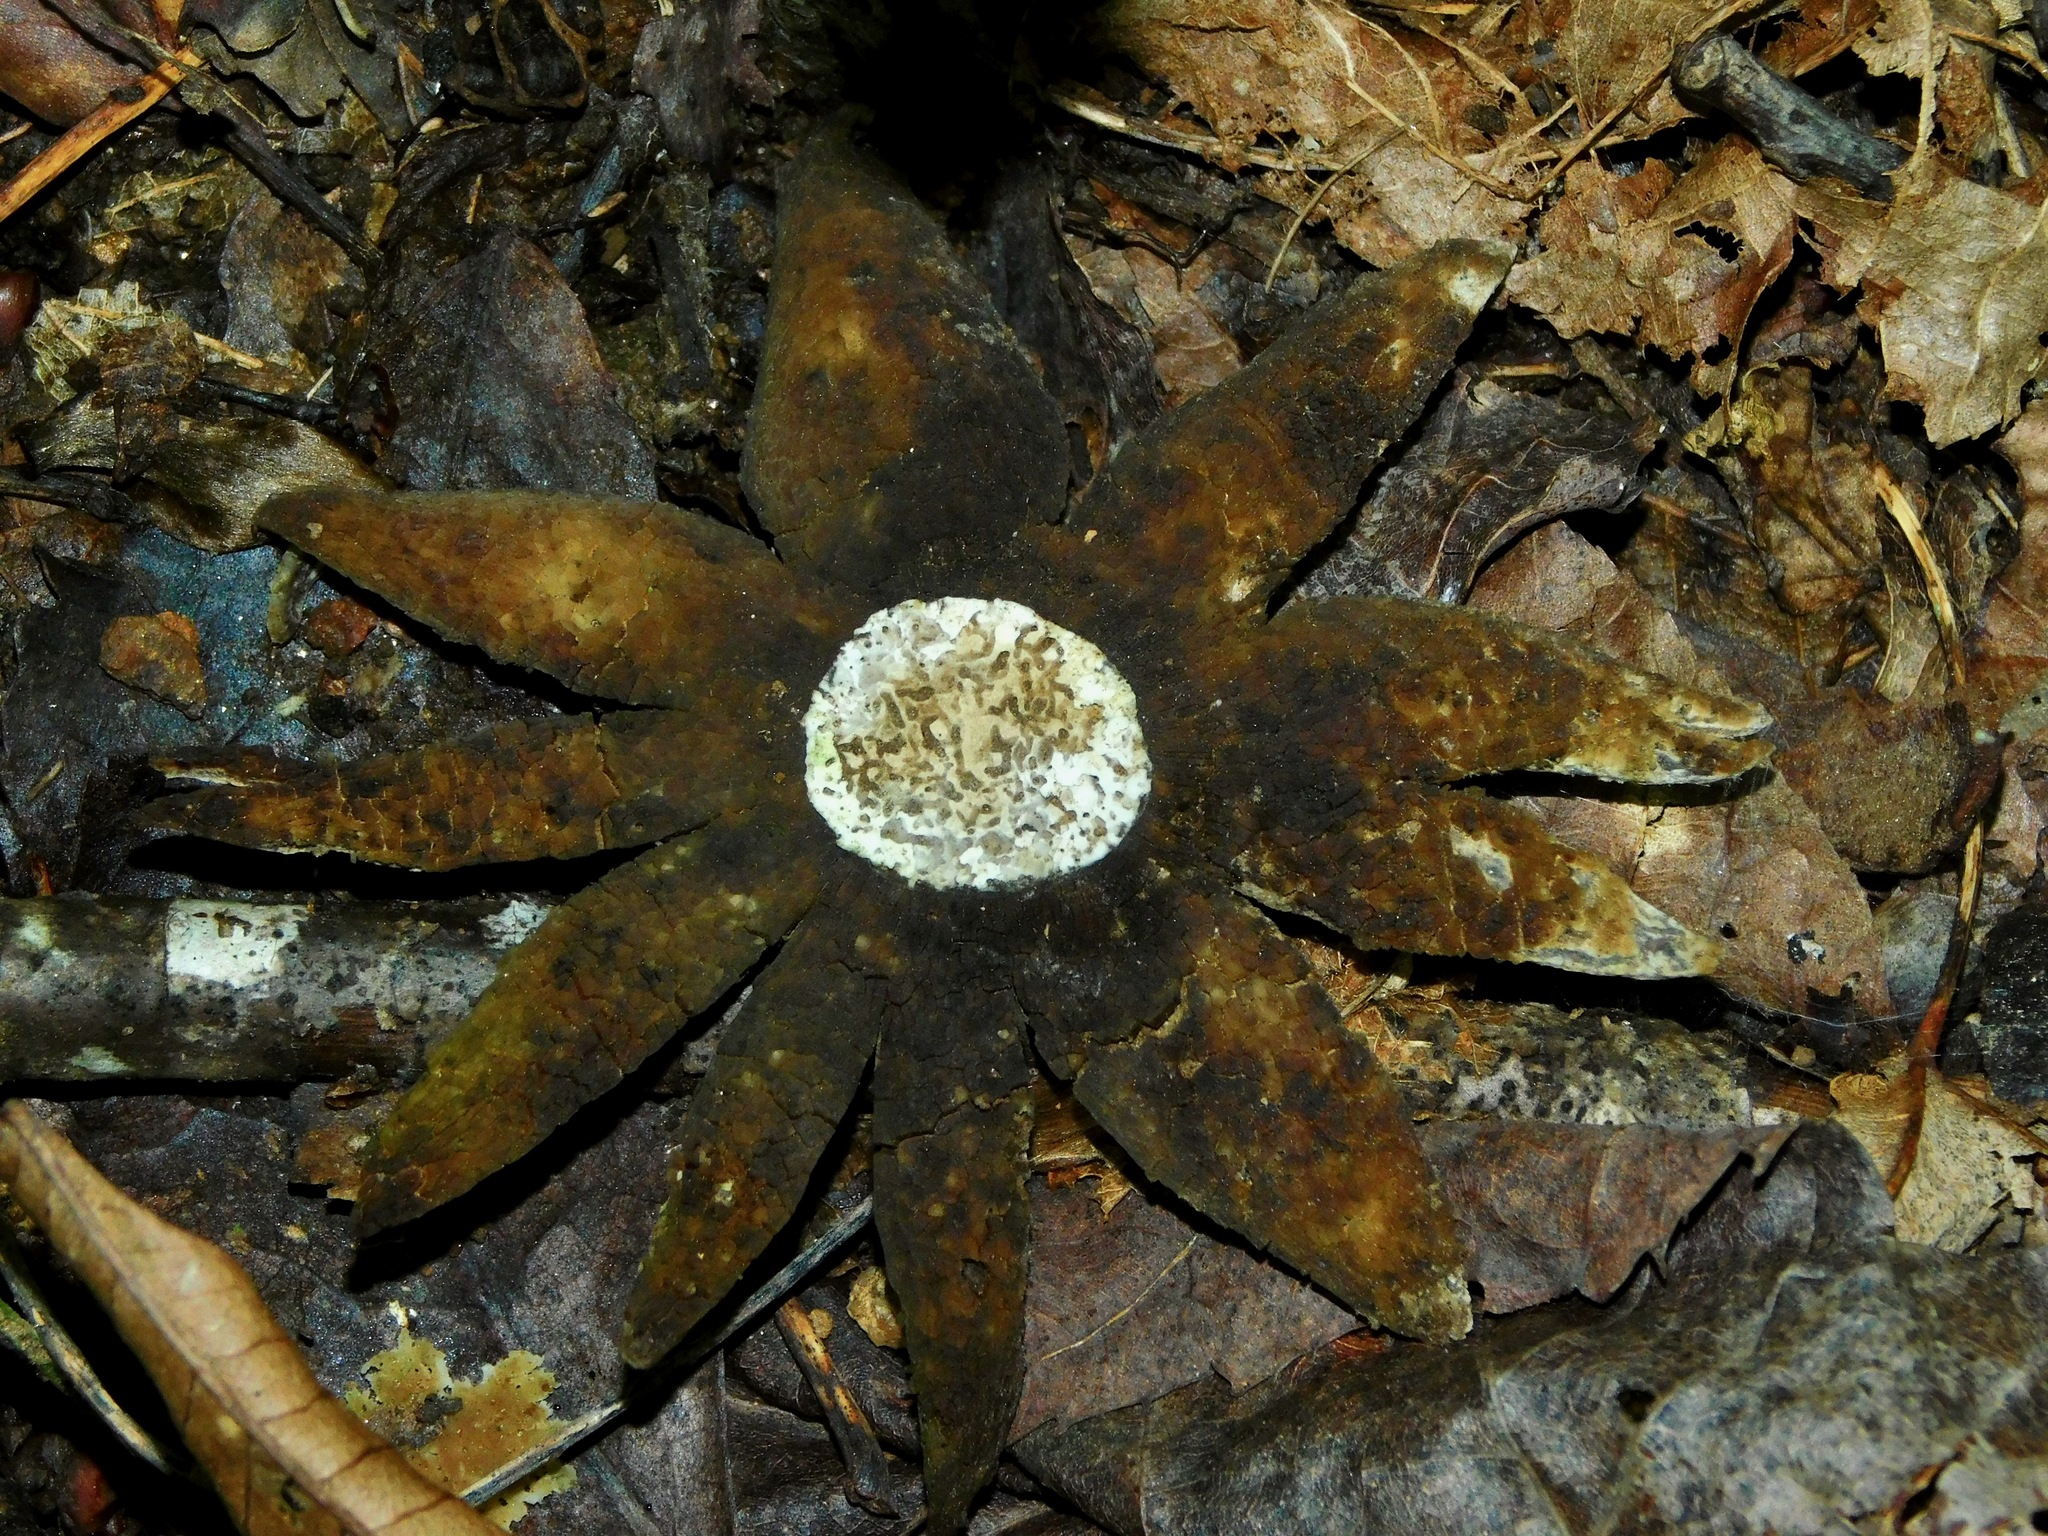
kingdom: Fungi
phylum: Basidiomycota
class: Agaricomycetes
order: Boletales
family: Diplocystidiaceae
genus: Astraeus
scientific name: Astraeus hygrometricus
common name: Barometer earthstar
